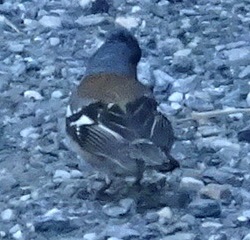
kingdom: Animalia
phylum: Chordata
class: Aves
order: Passeriformes
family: Fringillidae
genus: Fringilla
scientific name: Fringilla coelebs
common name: Common chaffinch
